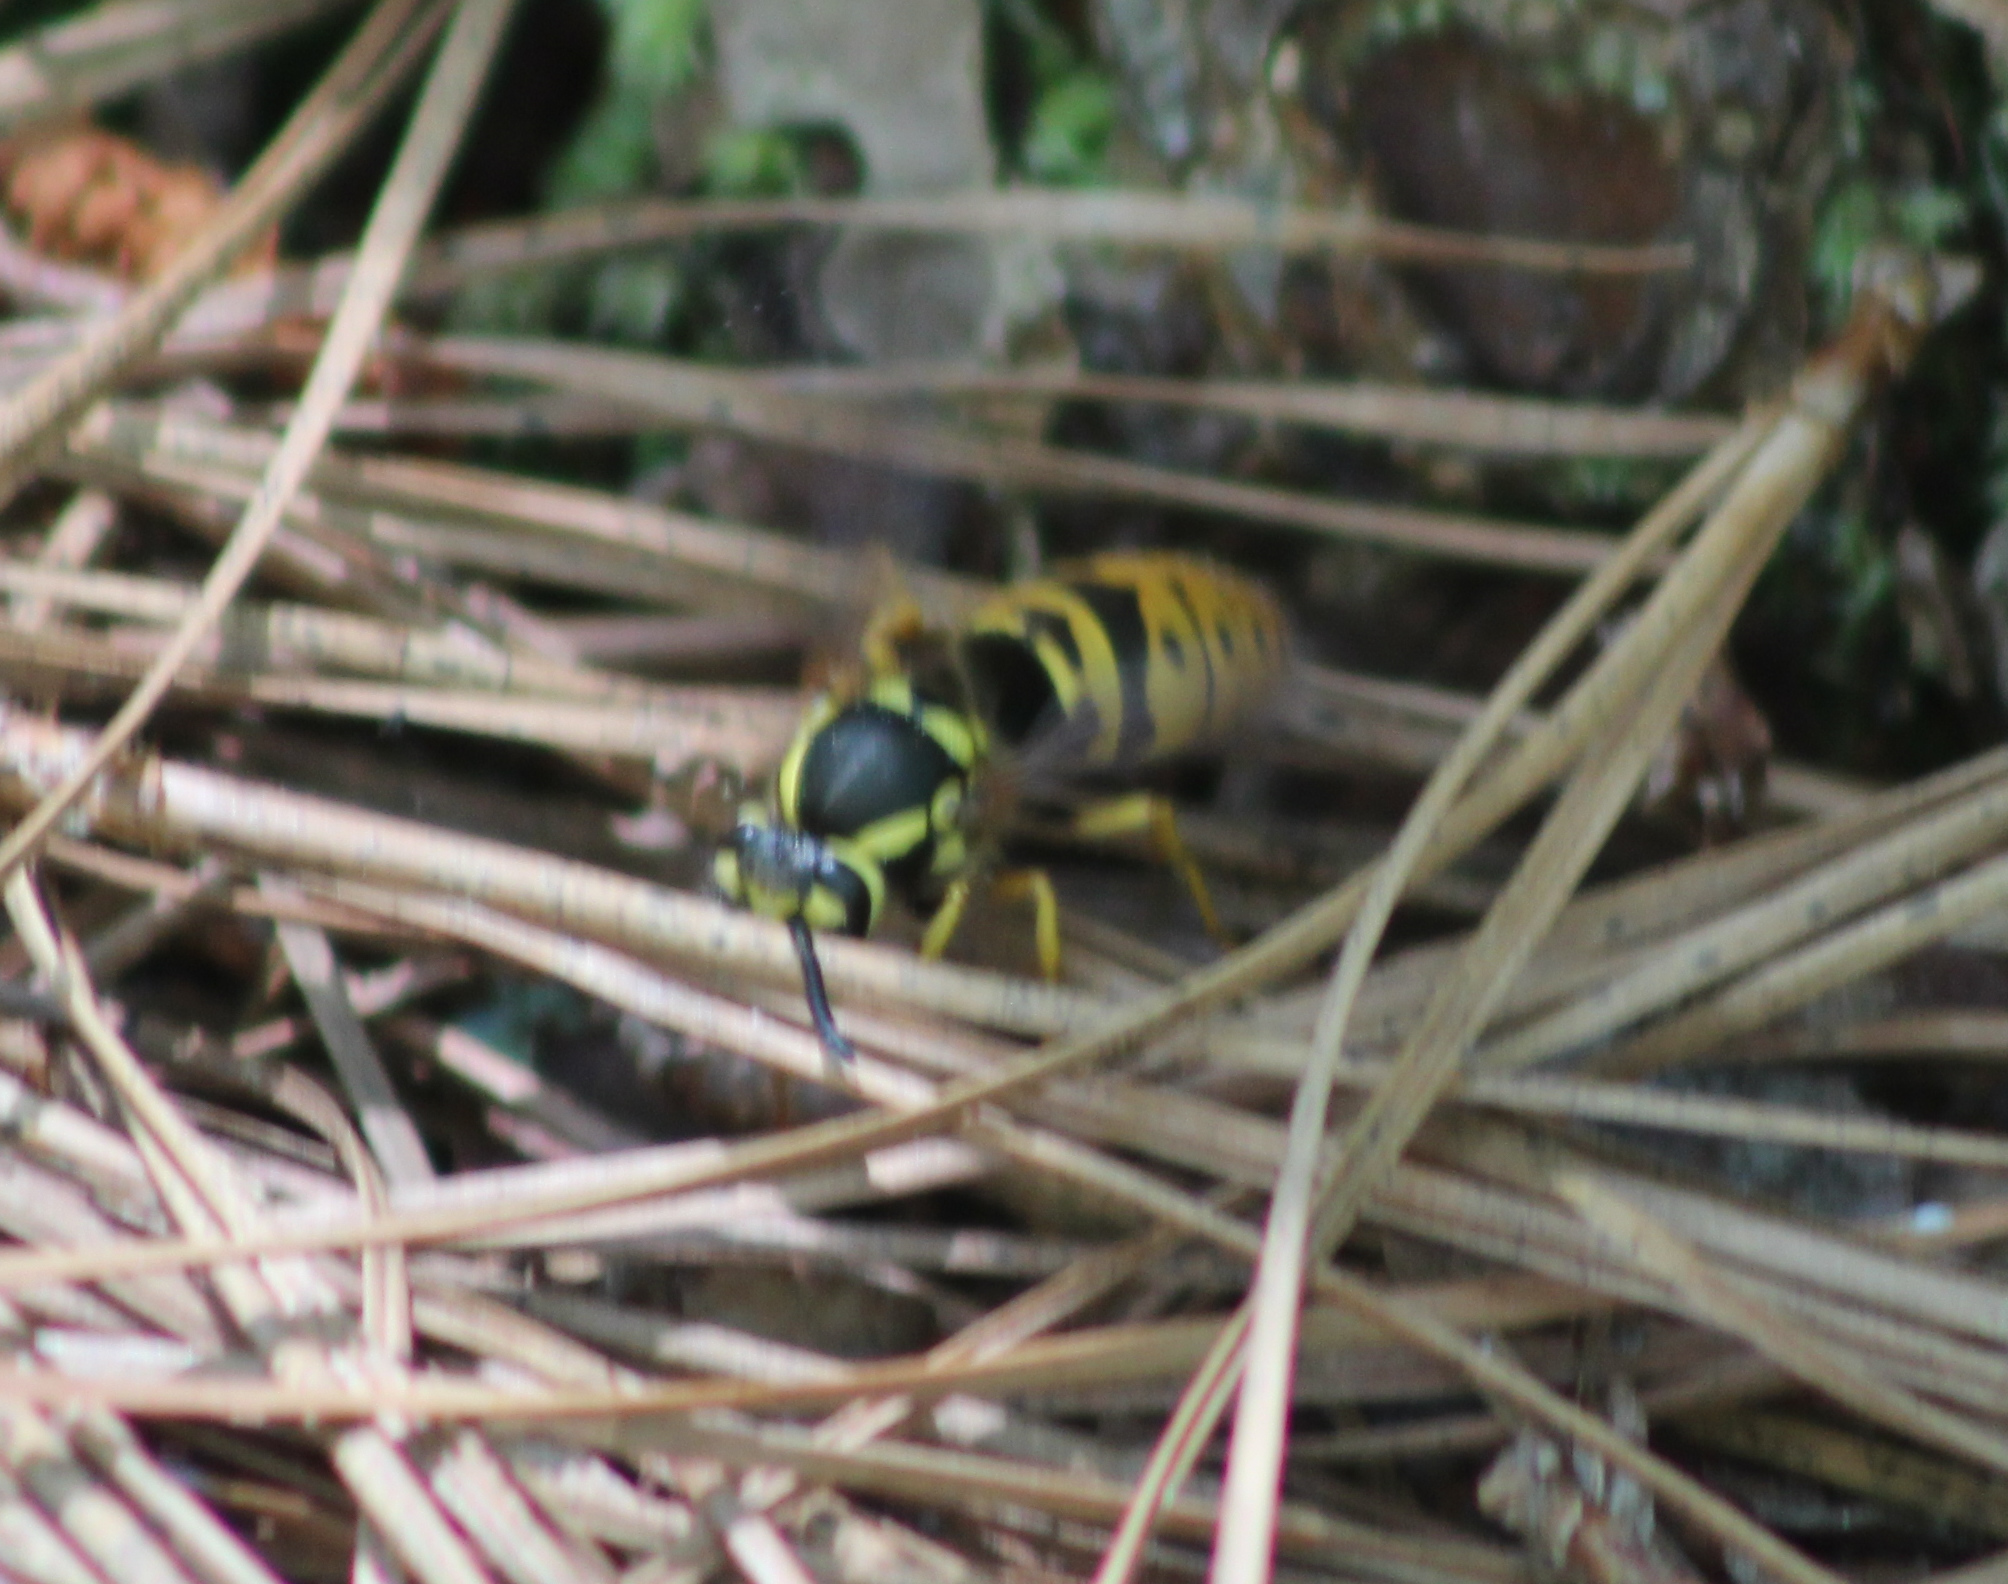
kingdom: Animalia
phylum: Arthropoda
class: Insecta
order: Hymenoptera
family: Vespidae
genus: Vespula
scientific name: Vespula maculifrons
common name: Eastern yellowjacket
